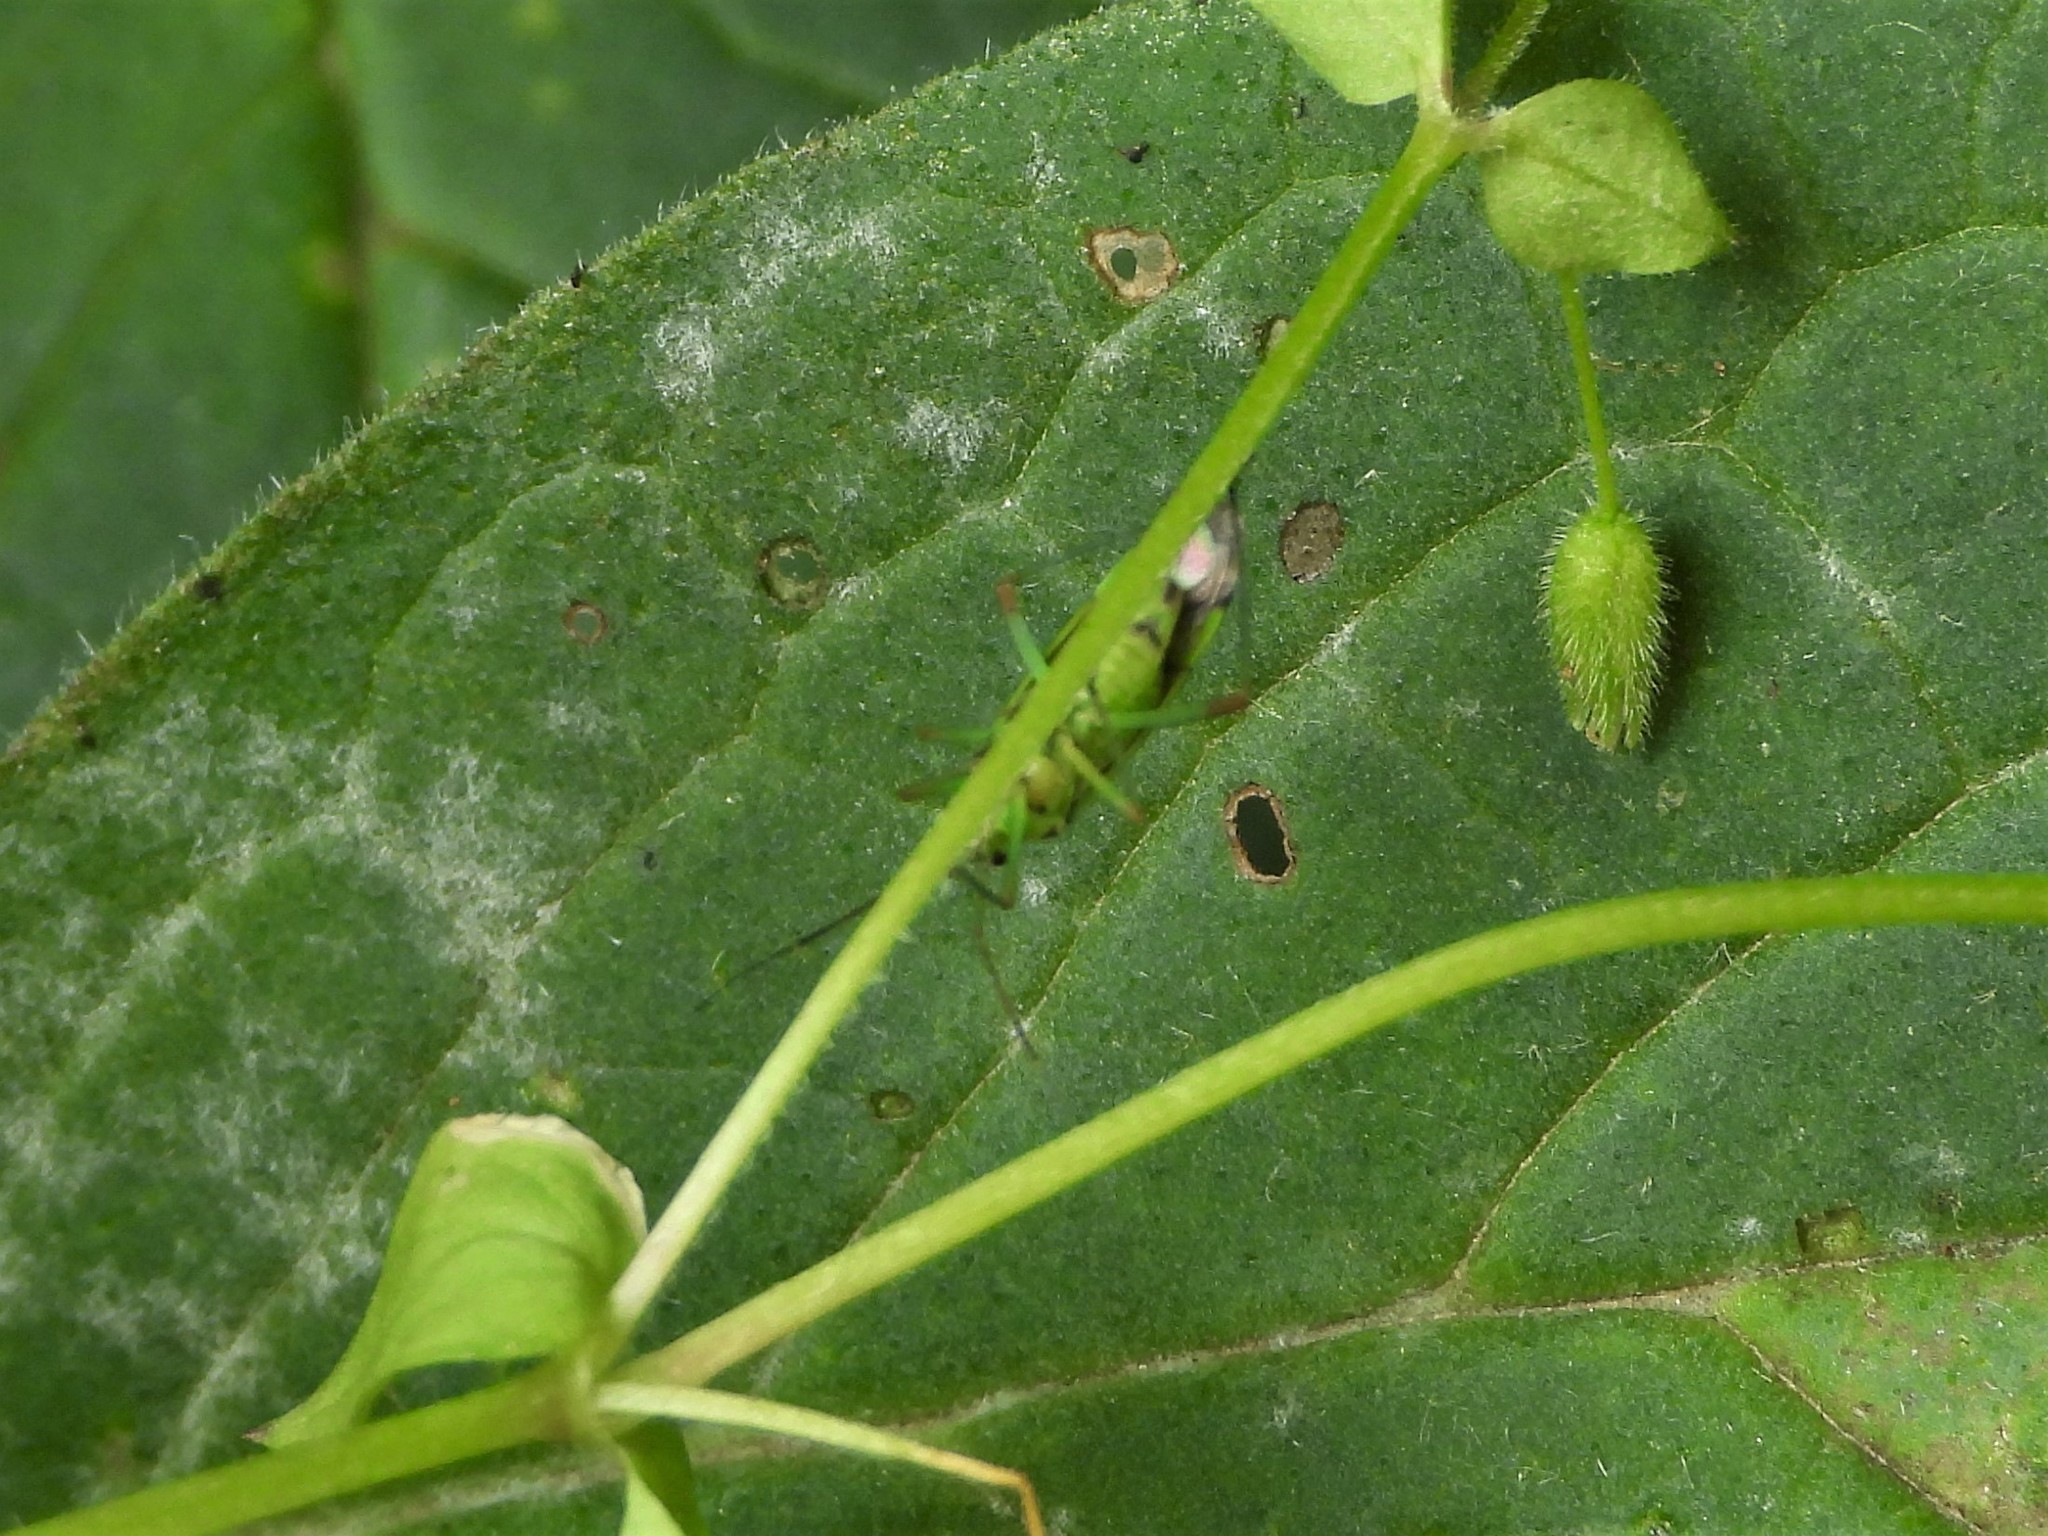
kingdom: Animalia
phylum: Arthropoda
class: Insecta
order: Hemiptera
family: Miridae
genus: Mermitelocerus
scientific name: Mermitelocerus schmidtii
